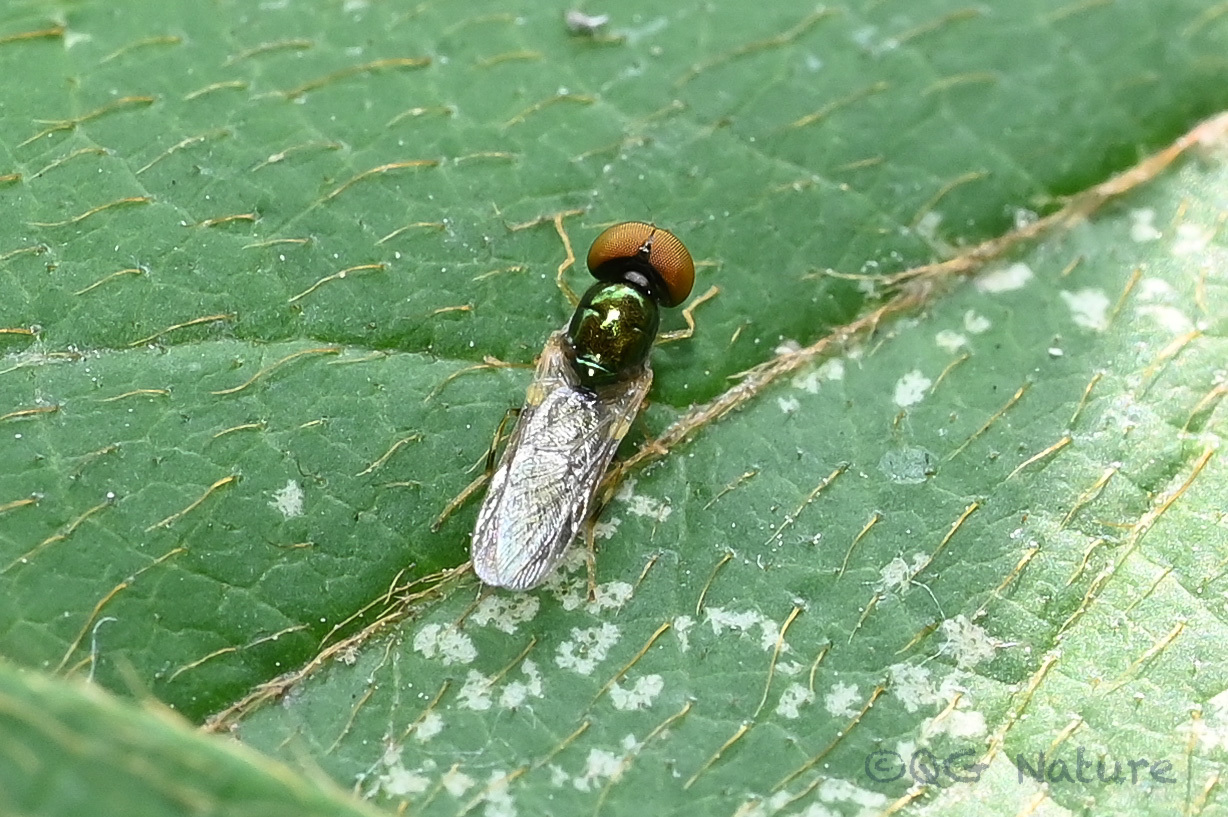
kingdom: Animalia
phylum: Arthropoda
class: Insecta
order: Diptera
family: Stratiomyidae
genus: Microchrysa
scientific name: Microchrysa flaviventris
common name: Soldier fly
